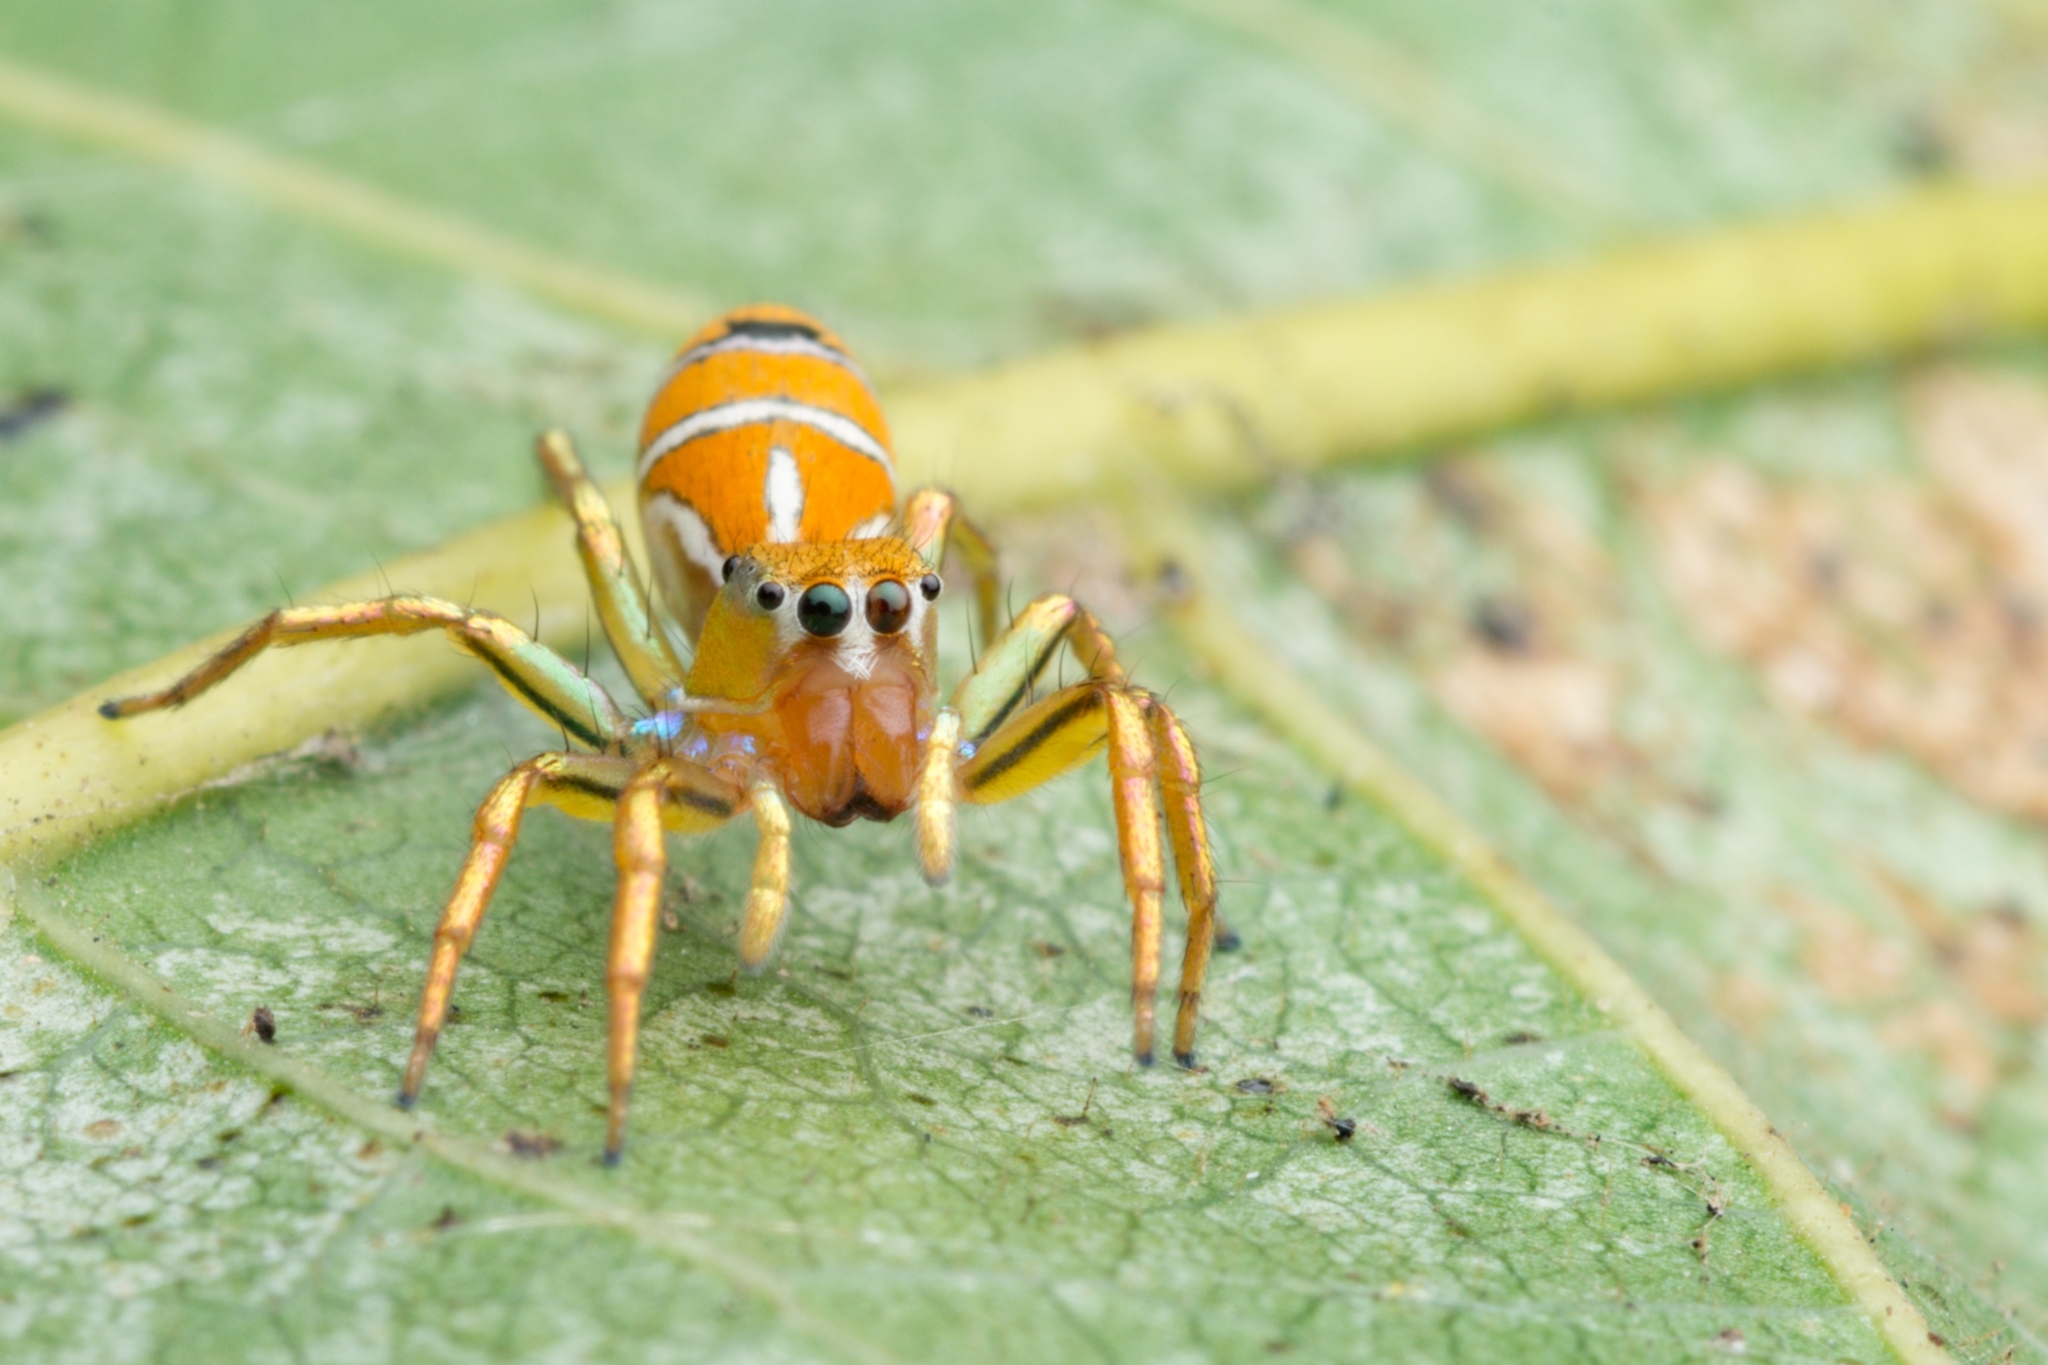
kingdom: Animalia
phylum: Arthropoda
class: Arachnida
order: Araneae
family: Salticidae
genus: Cosmophasis
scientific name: Cosmophasis bitaeniata
